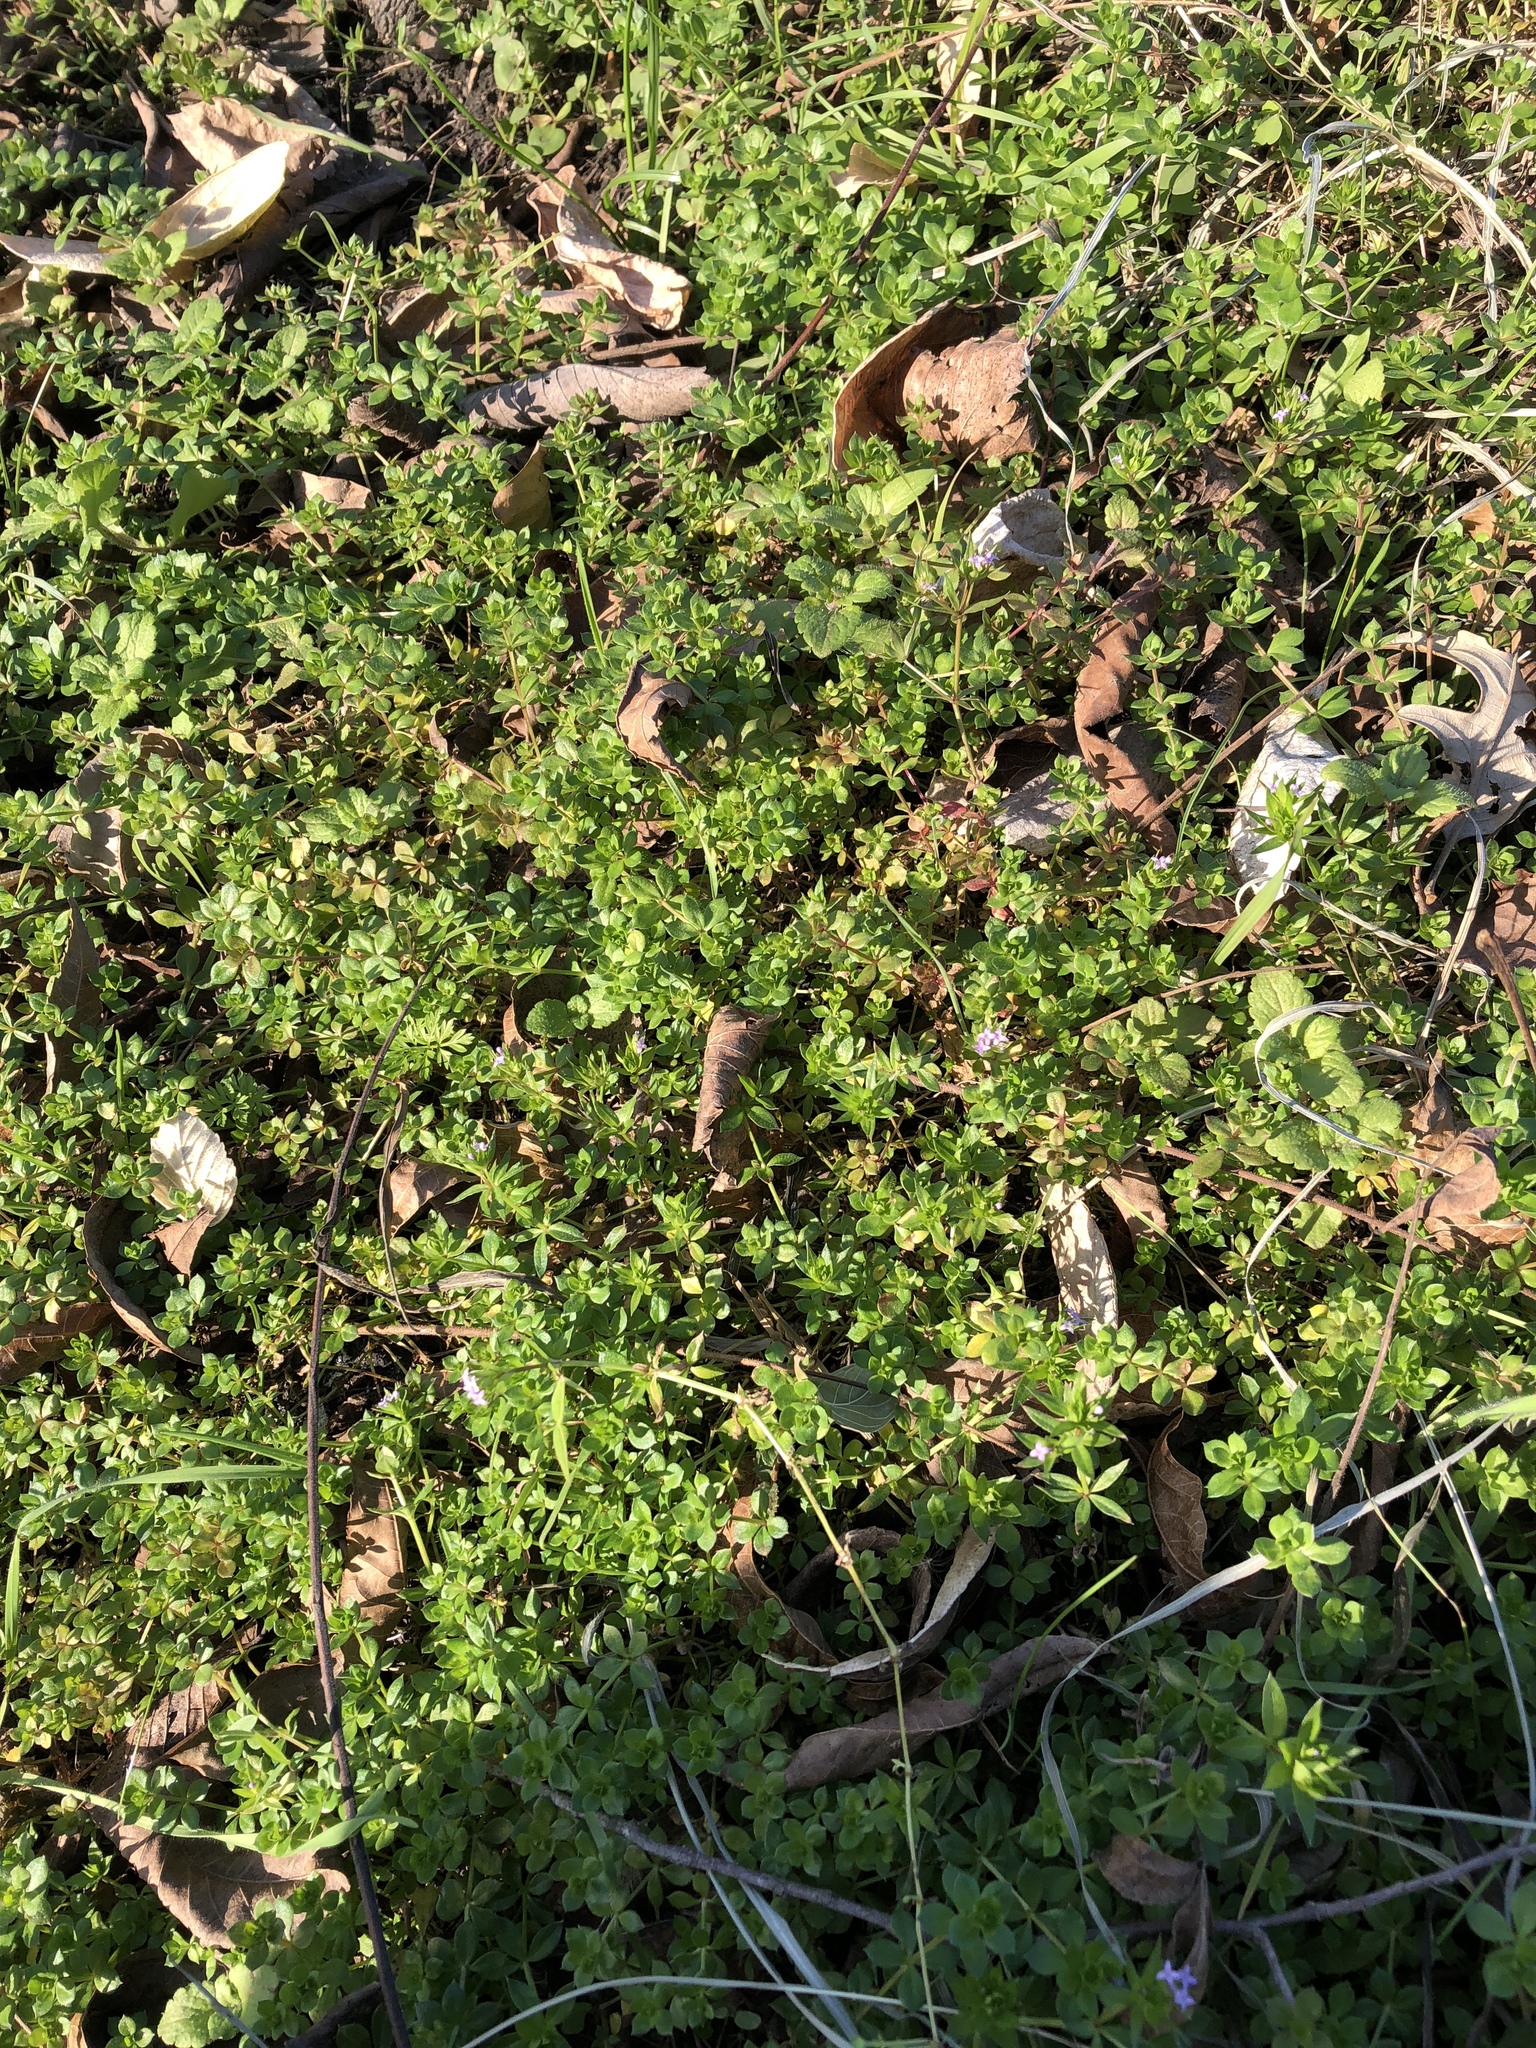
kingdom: Plantae
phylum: Tracheophyta
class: Magnoliopsida
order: Gentianales
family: Rubiaceae
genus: Sherardia
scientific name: Sherardia arvensis
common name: Field madder
